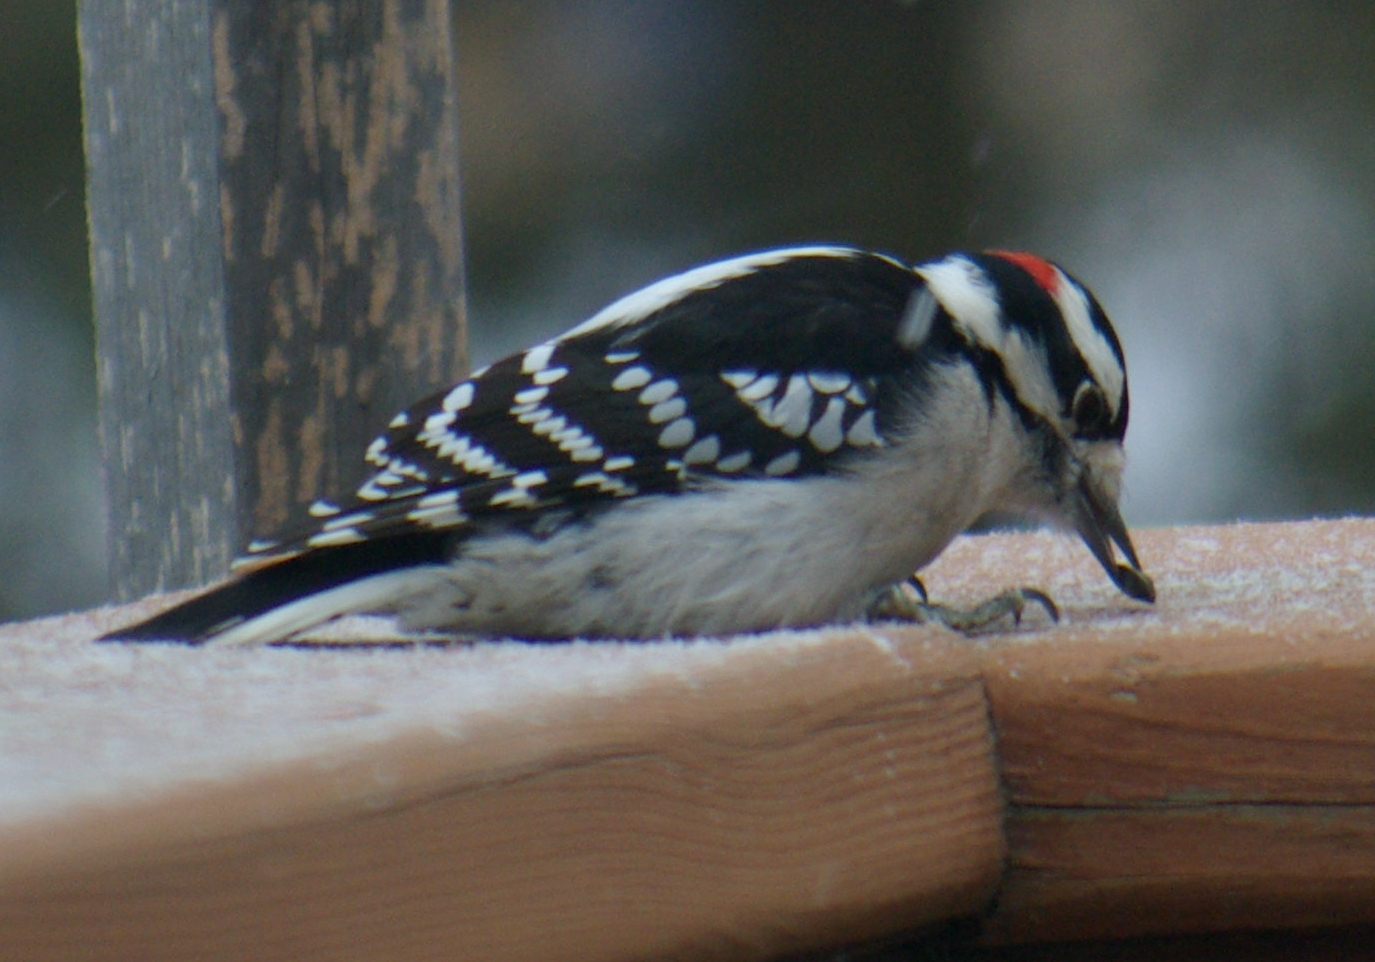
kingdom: Animalia
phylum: Chordata
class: Aves
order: Piciformes
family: Picidae
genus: Dryobates
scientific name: Dryobates pubescens
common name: Downy woodpecker
